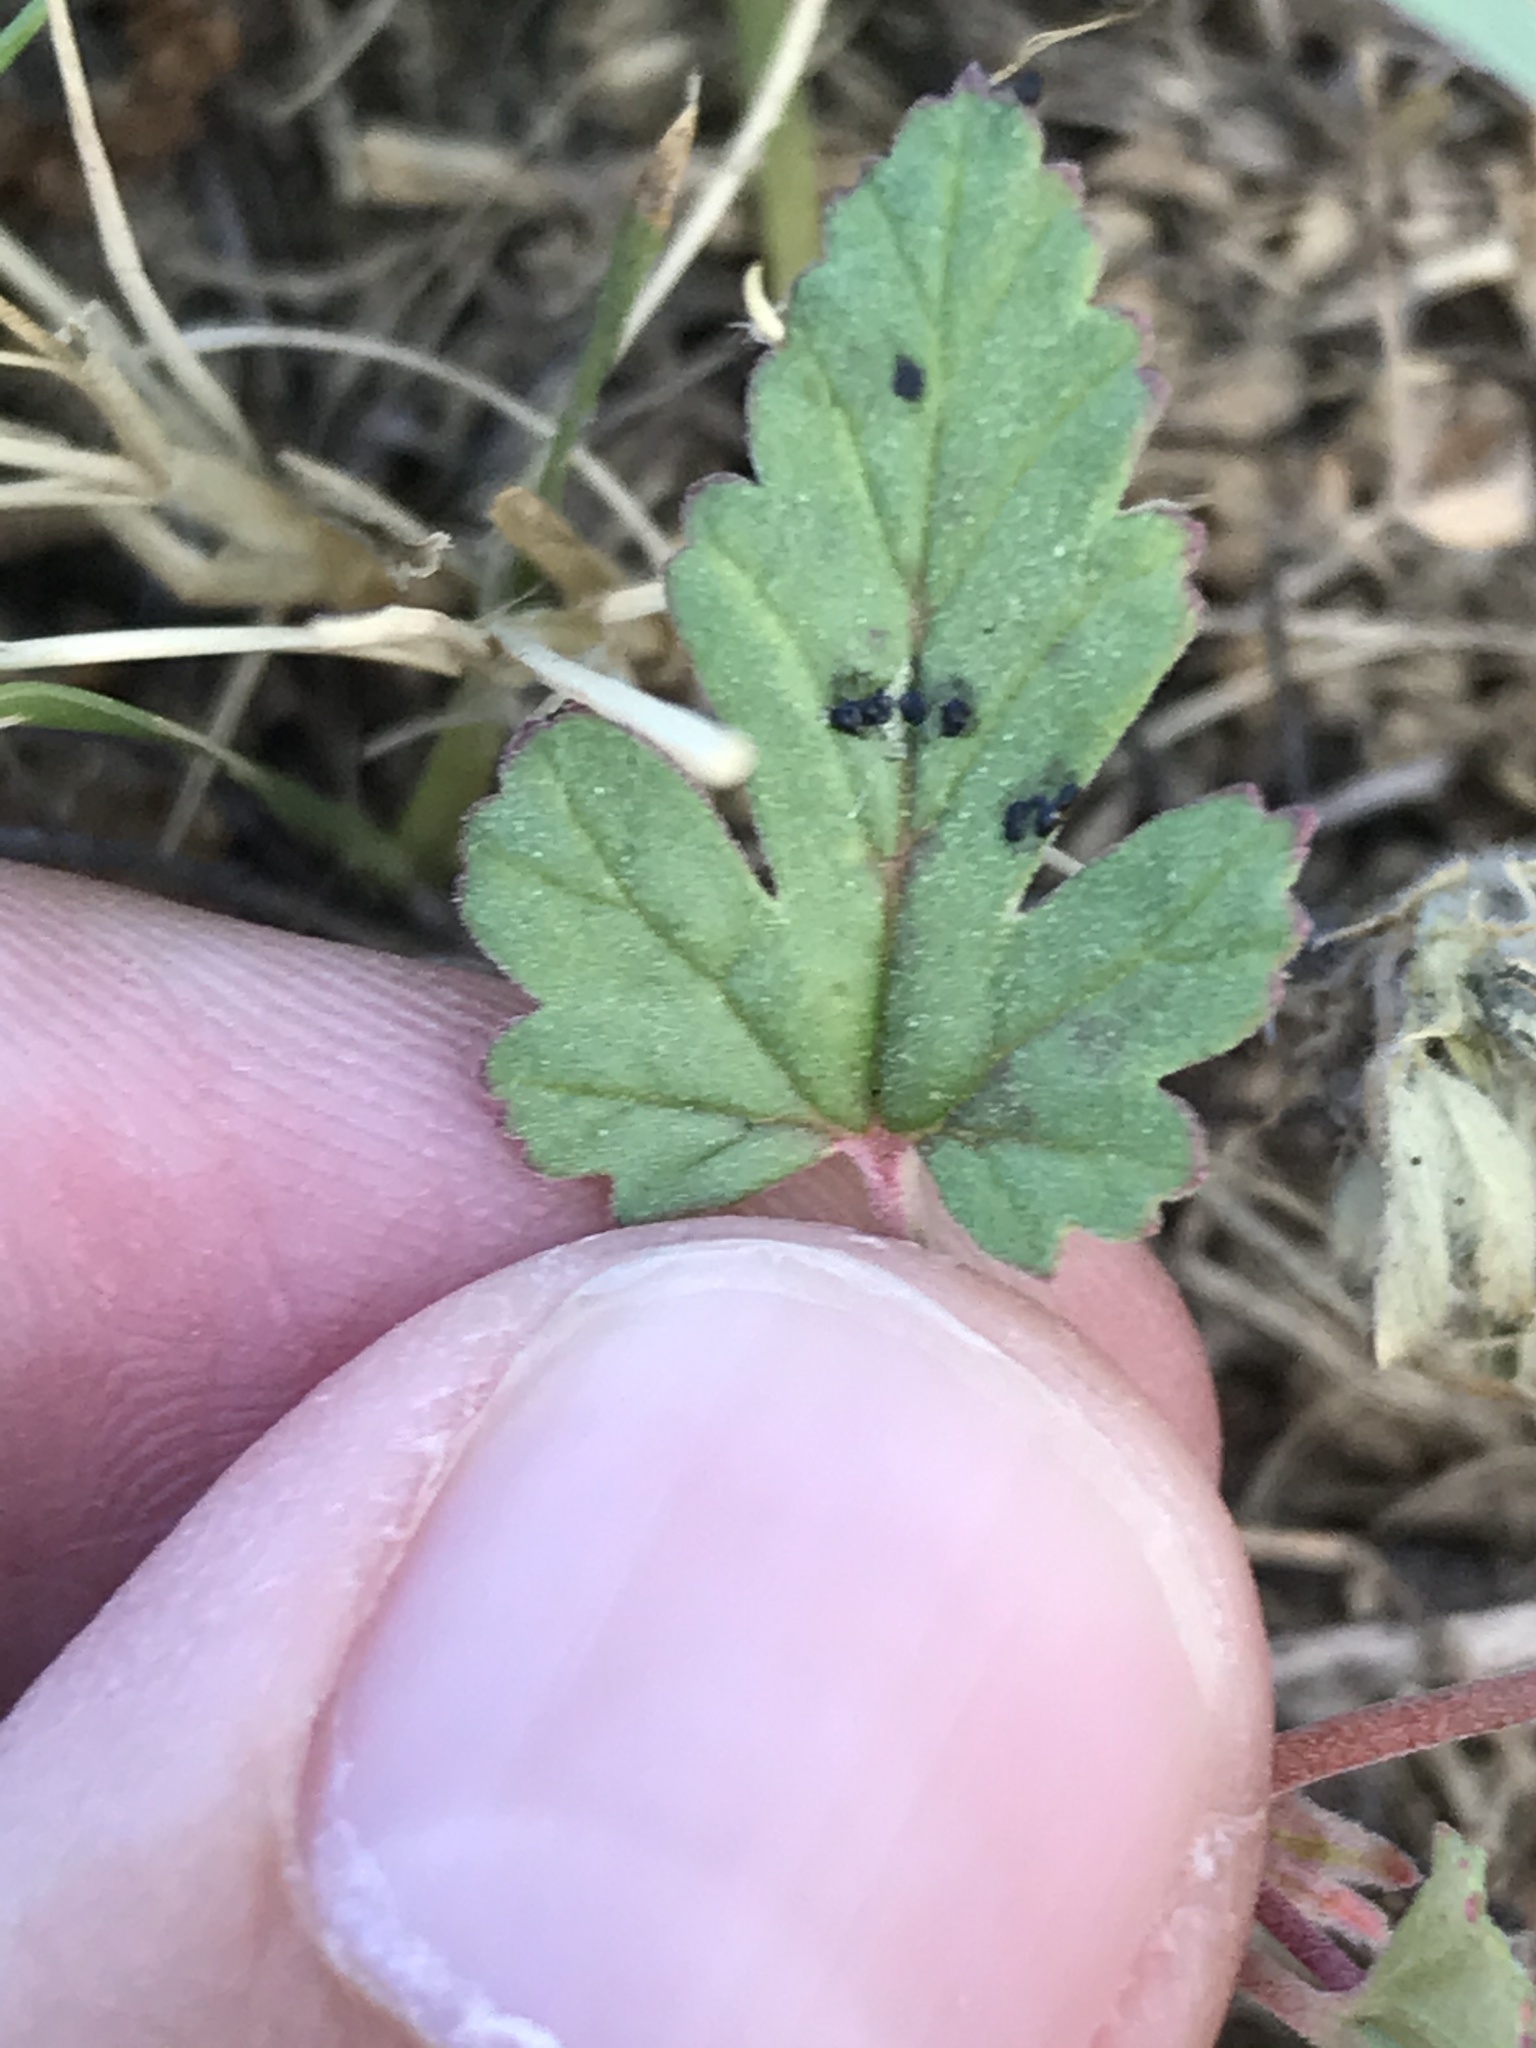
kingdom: Plantae
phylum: Tracheophyta
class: Magnoliopsida
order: Geraniales
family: Geraniaceae
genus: Erodium
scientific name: Erodium texanum
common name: Texas stork's-bill
